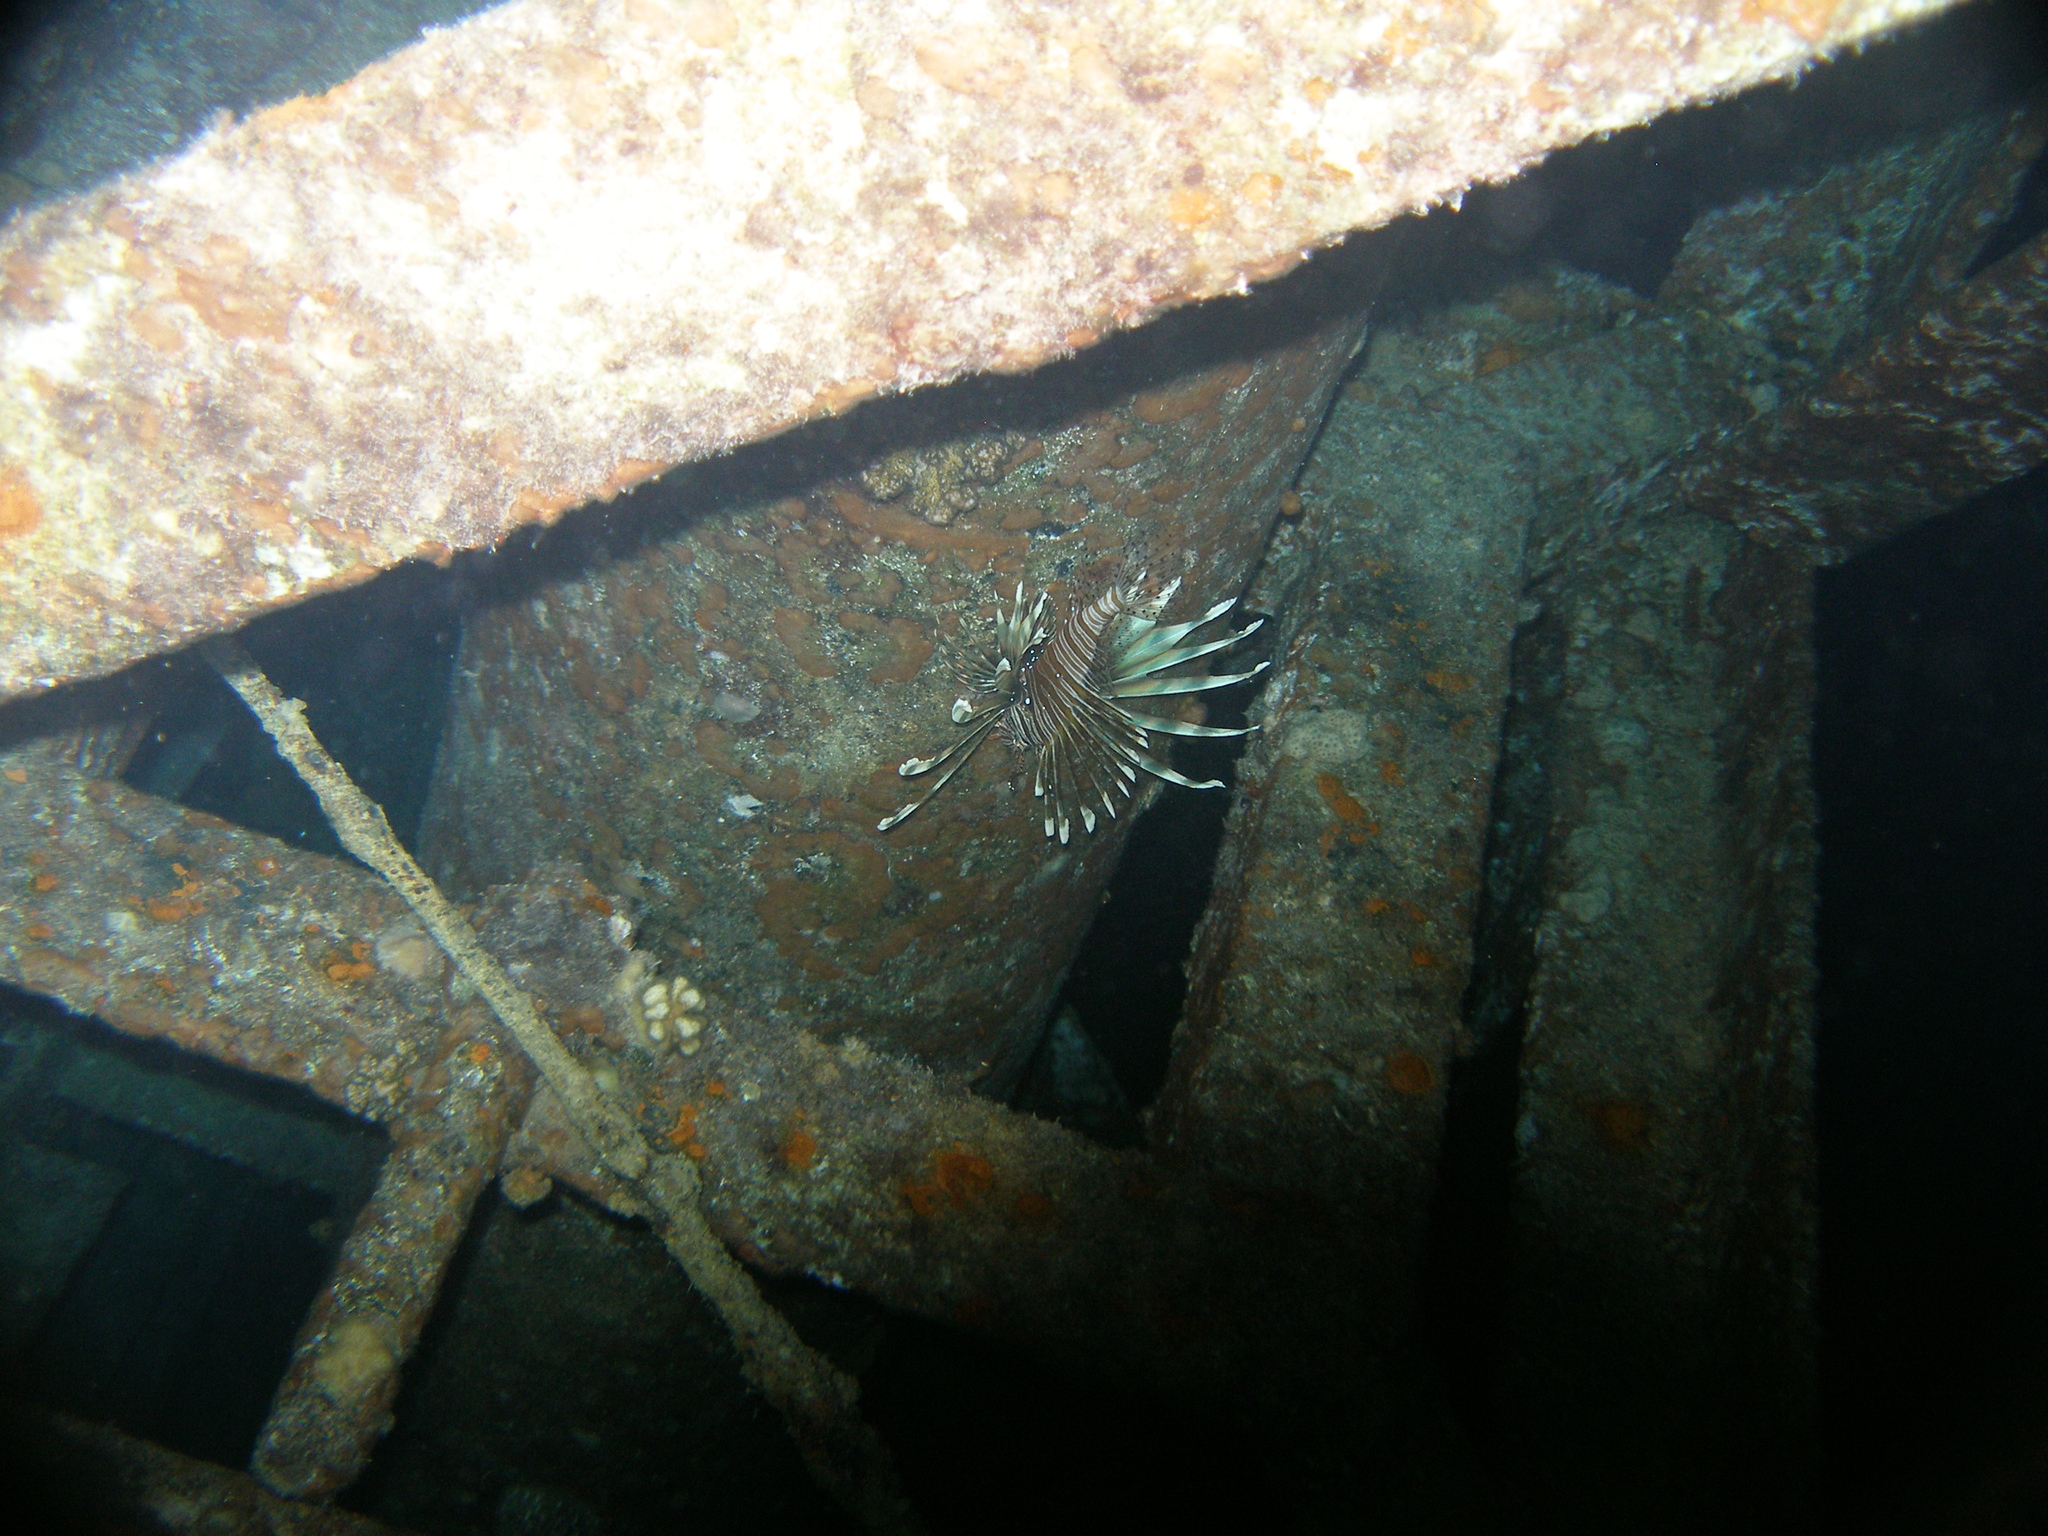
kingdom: Animalia
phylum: Chordata
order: Scorpaeniformes
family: Scorpaenidae
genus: Pterois
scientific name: Pterois miles
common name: Devil firefish
